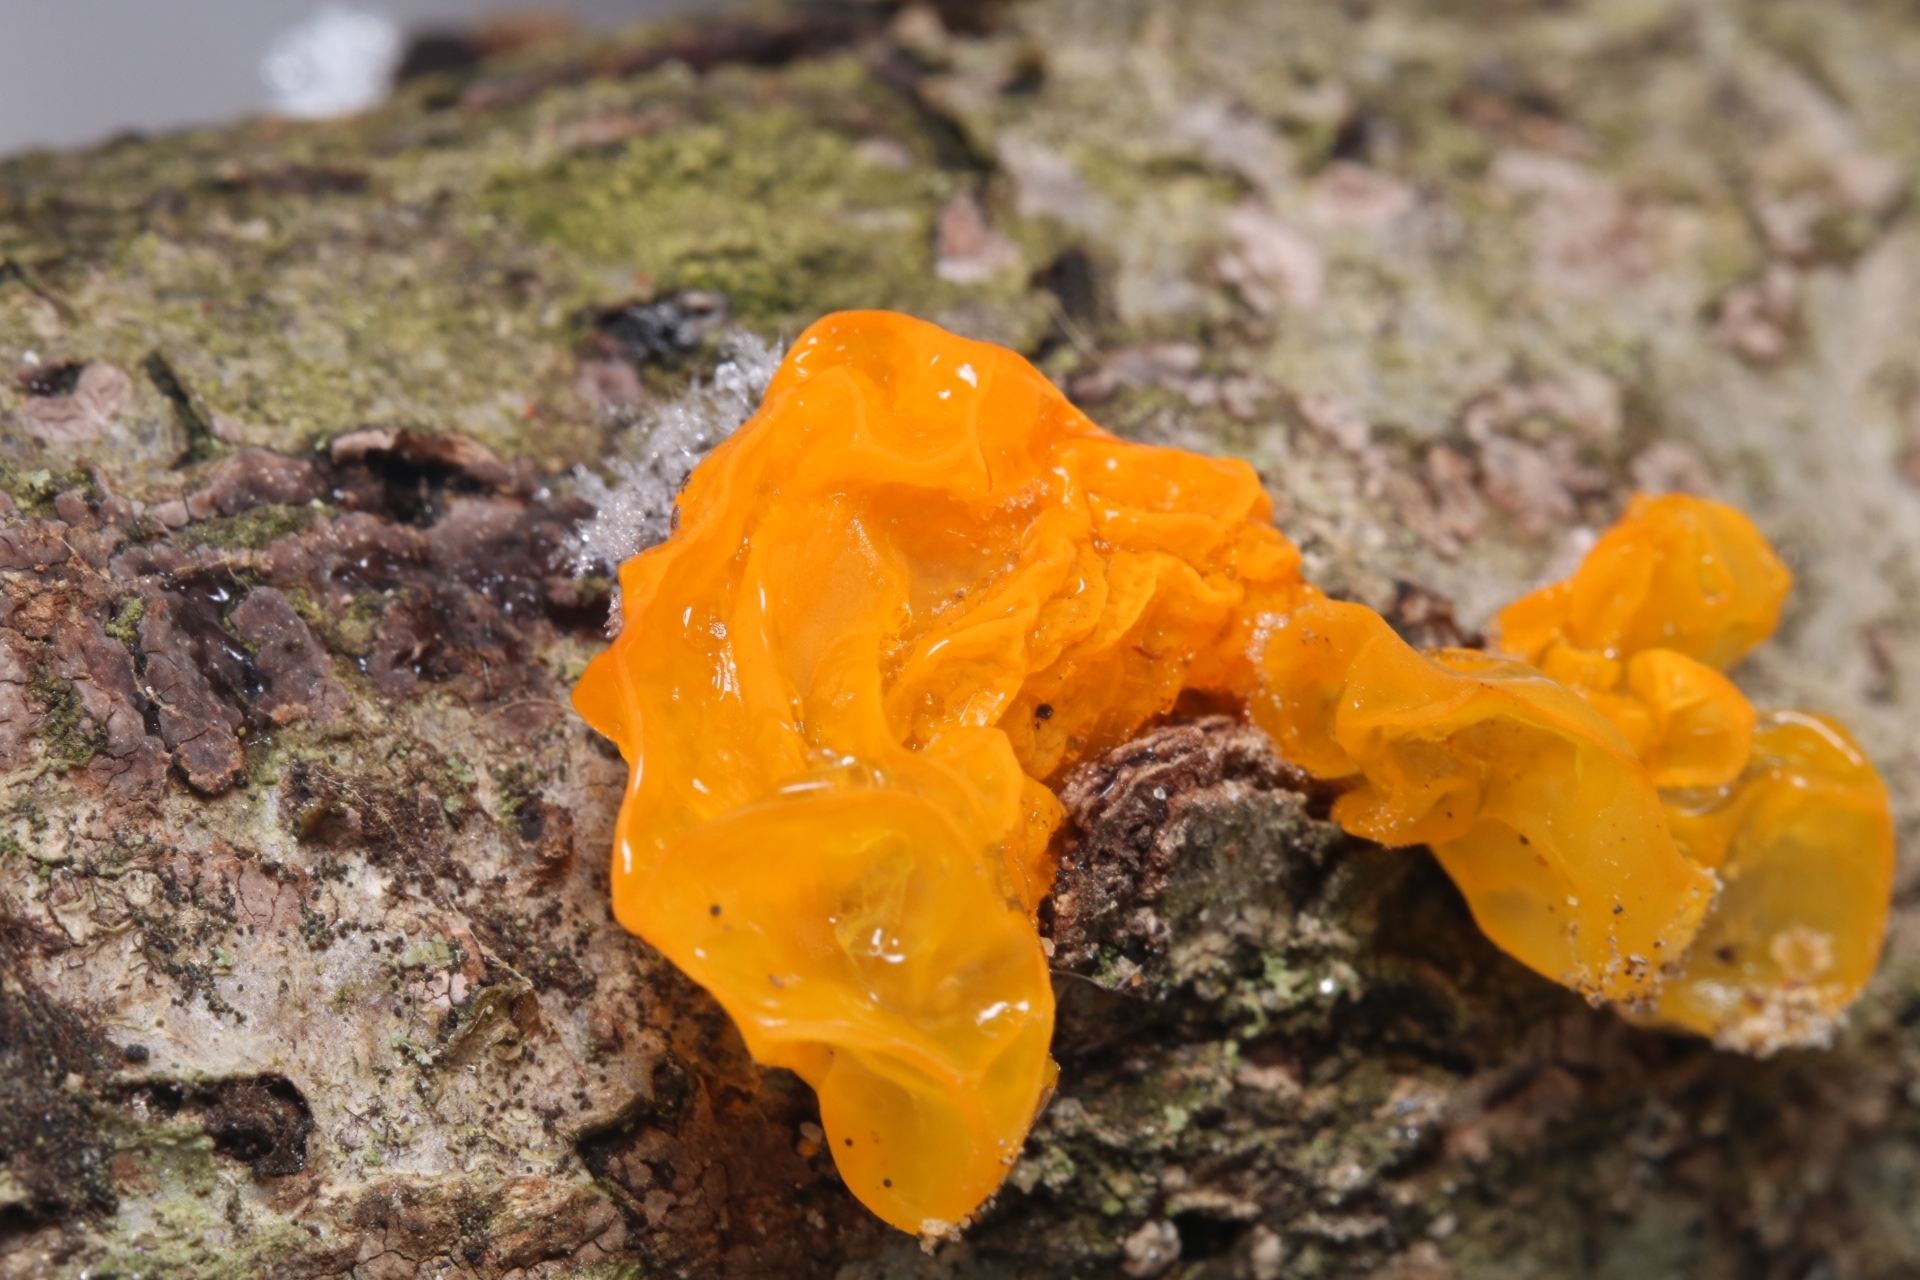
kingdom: Fungi
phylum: Basidiomycota
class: Tremellomycetes
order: Tremellales
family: Tremellaceae
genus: Tremella
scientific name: Tremella mesenterica
